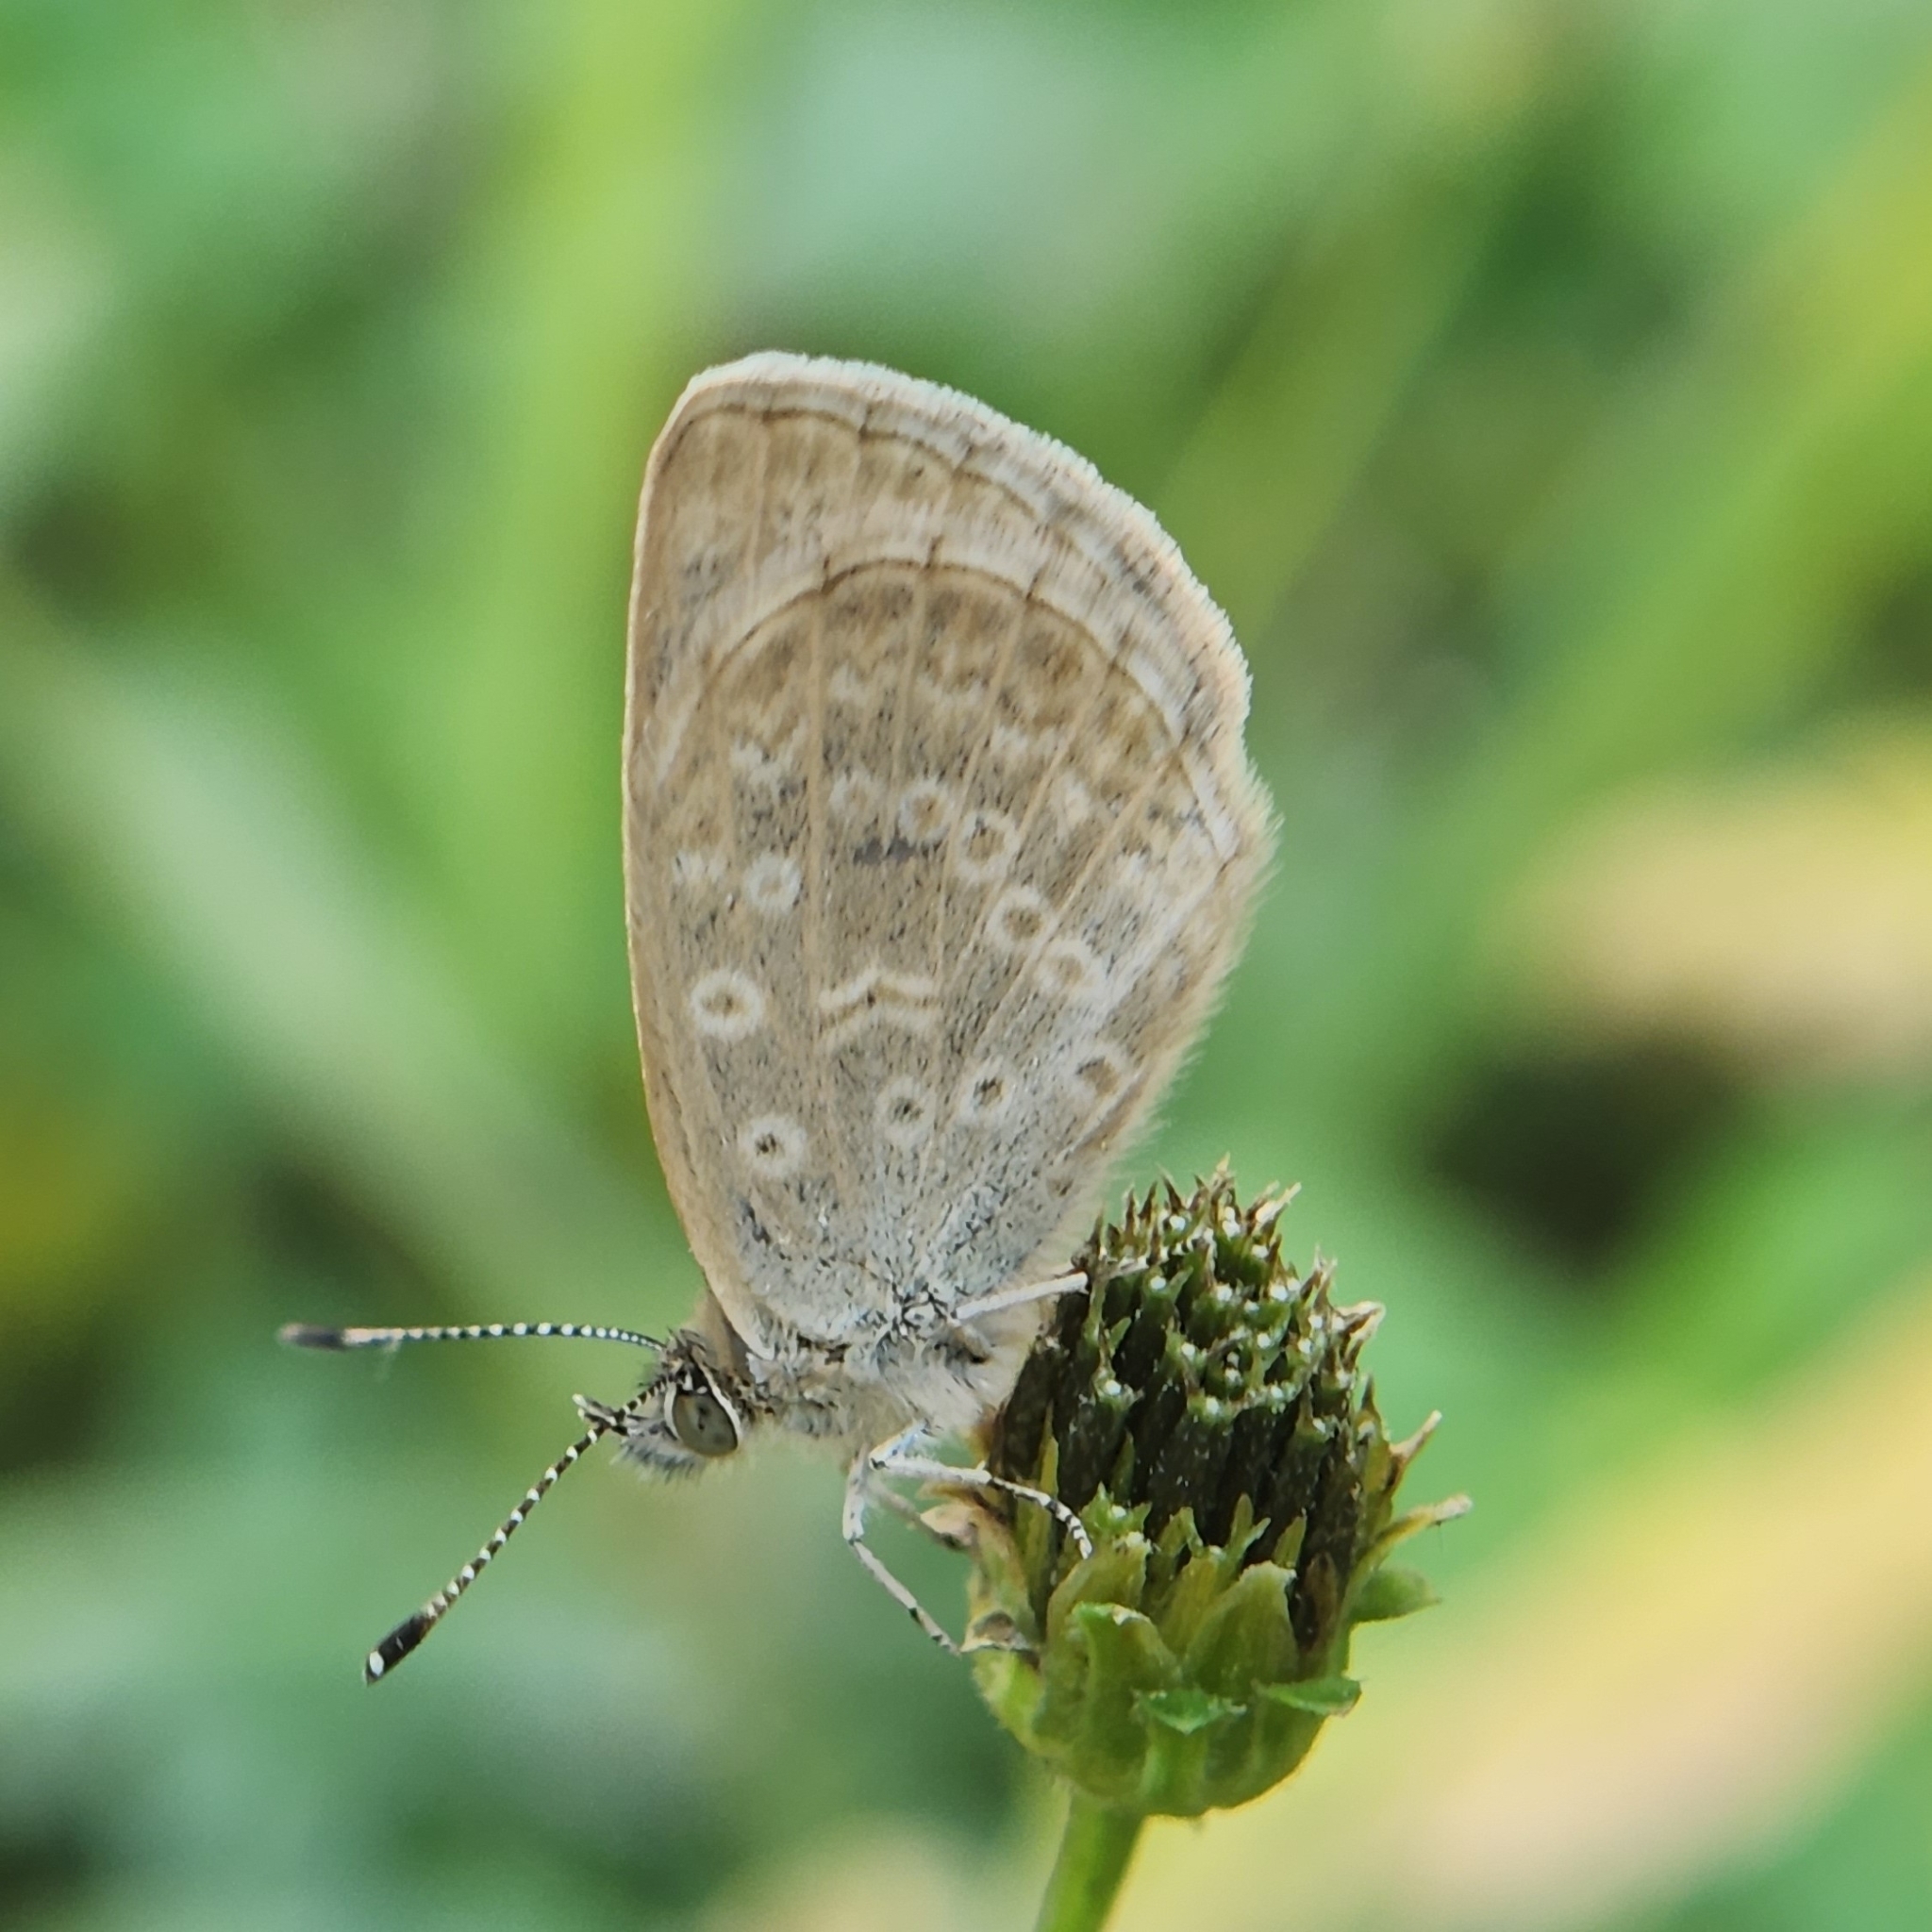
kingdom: Animalia
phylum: Arthropoda
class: Insecta
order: Lepidoptera
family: Lycaenidae
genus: Pseudozizeeria
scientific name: Pseudozizeeria maha
